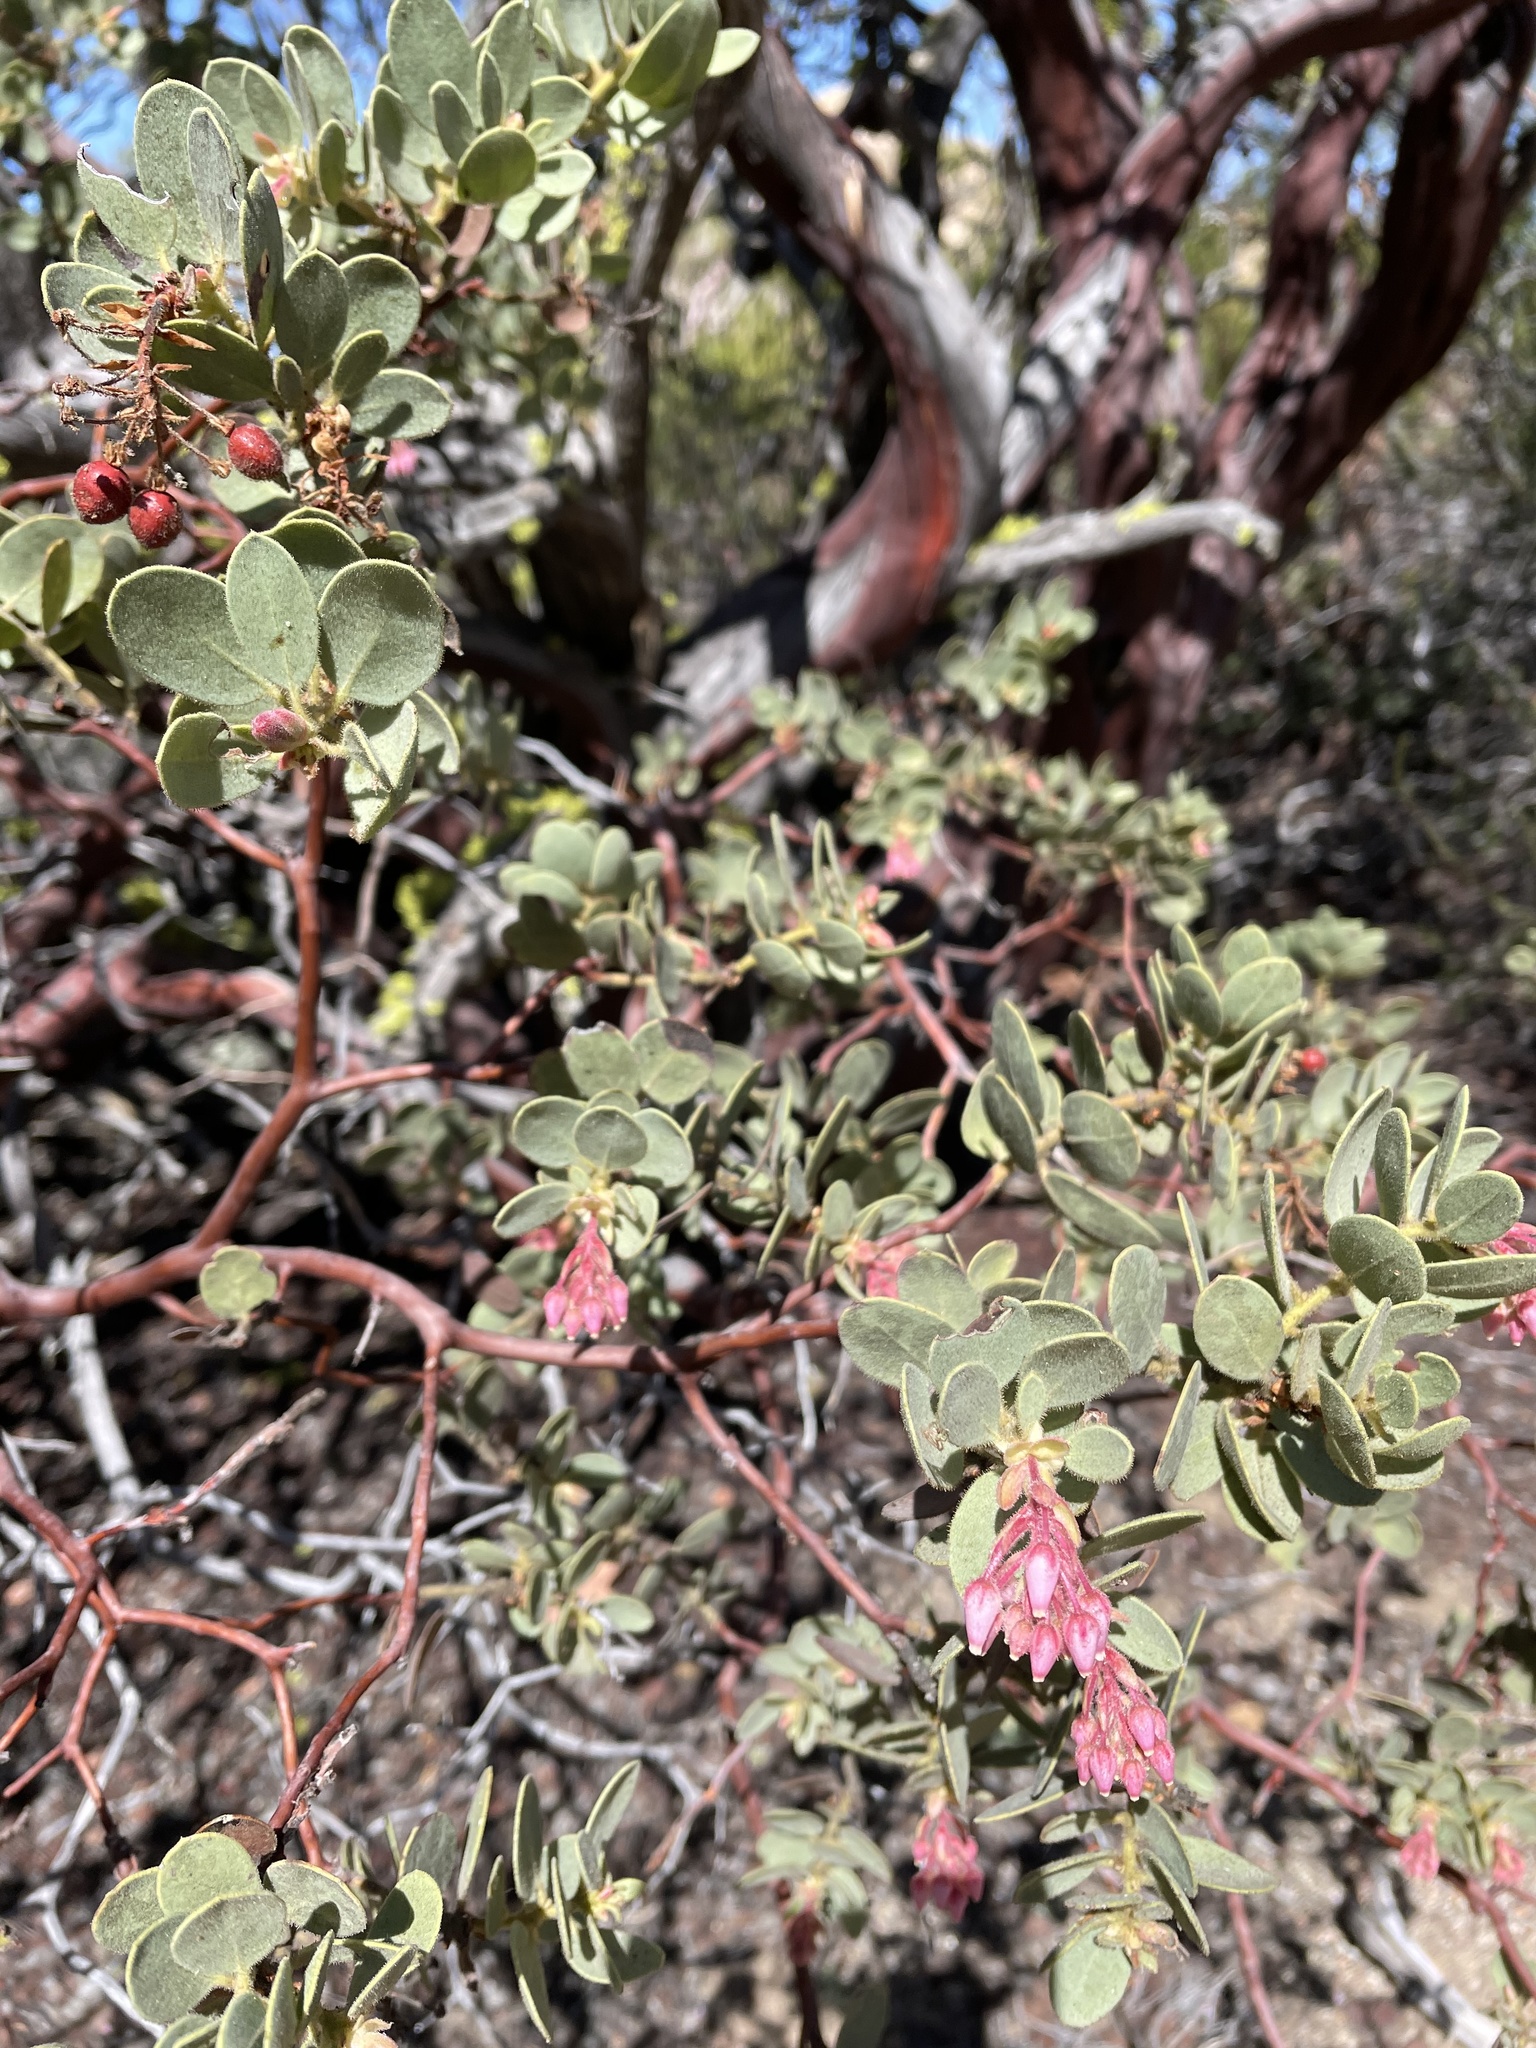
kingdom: Plantae
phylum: Tracheophyta
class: Magnoliopsida
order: Ericales
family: Ericaceae
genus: Arctostaphylos
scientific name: Arctostaphylos pringlei
